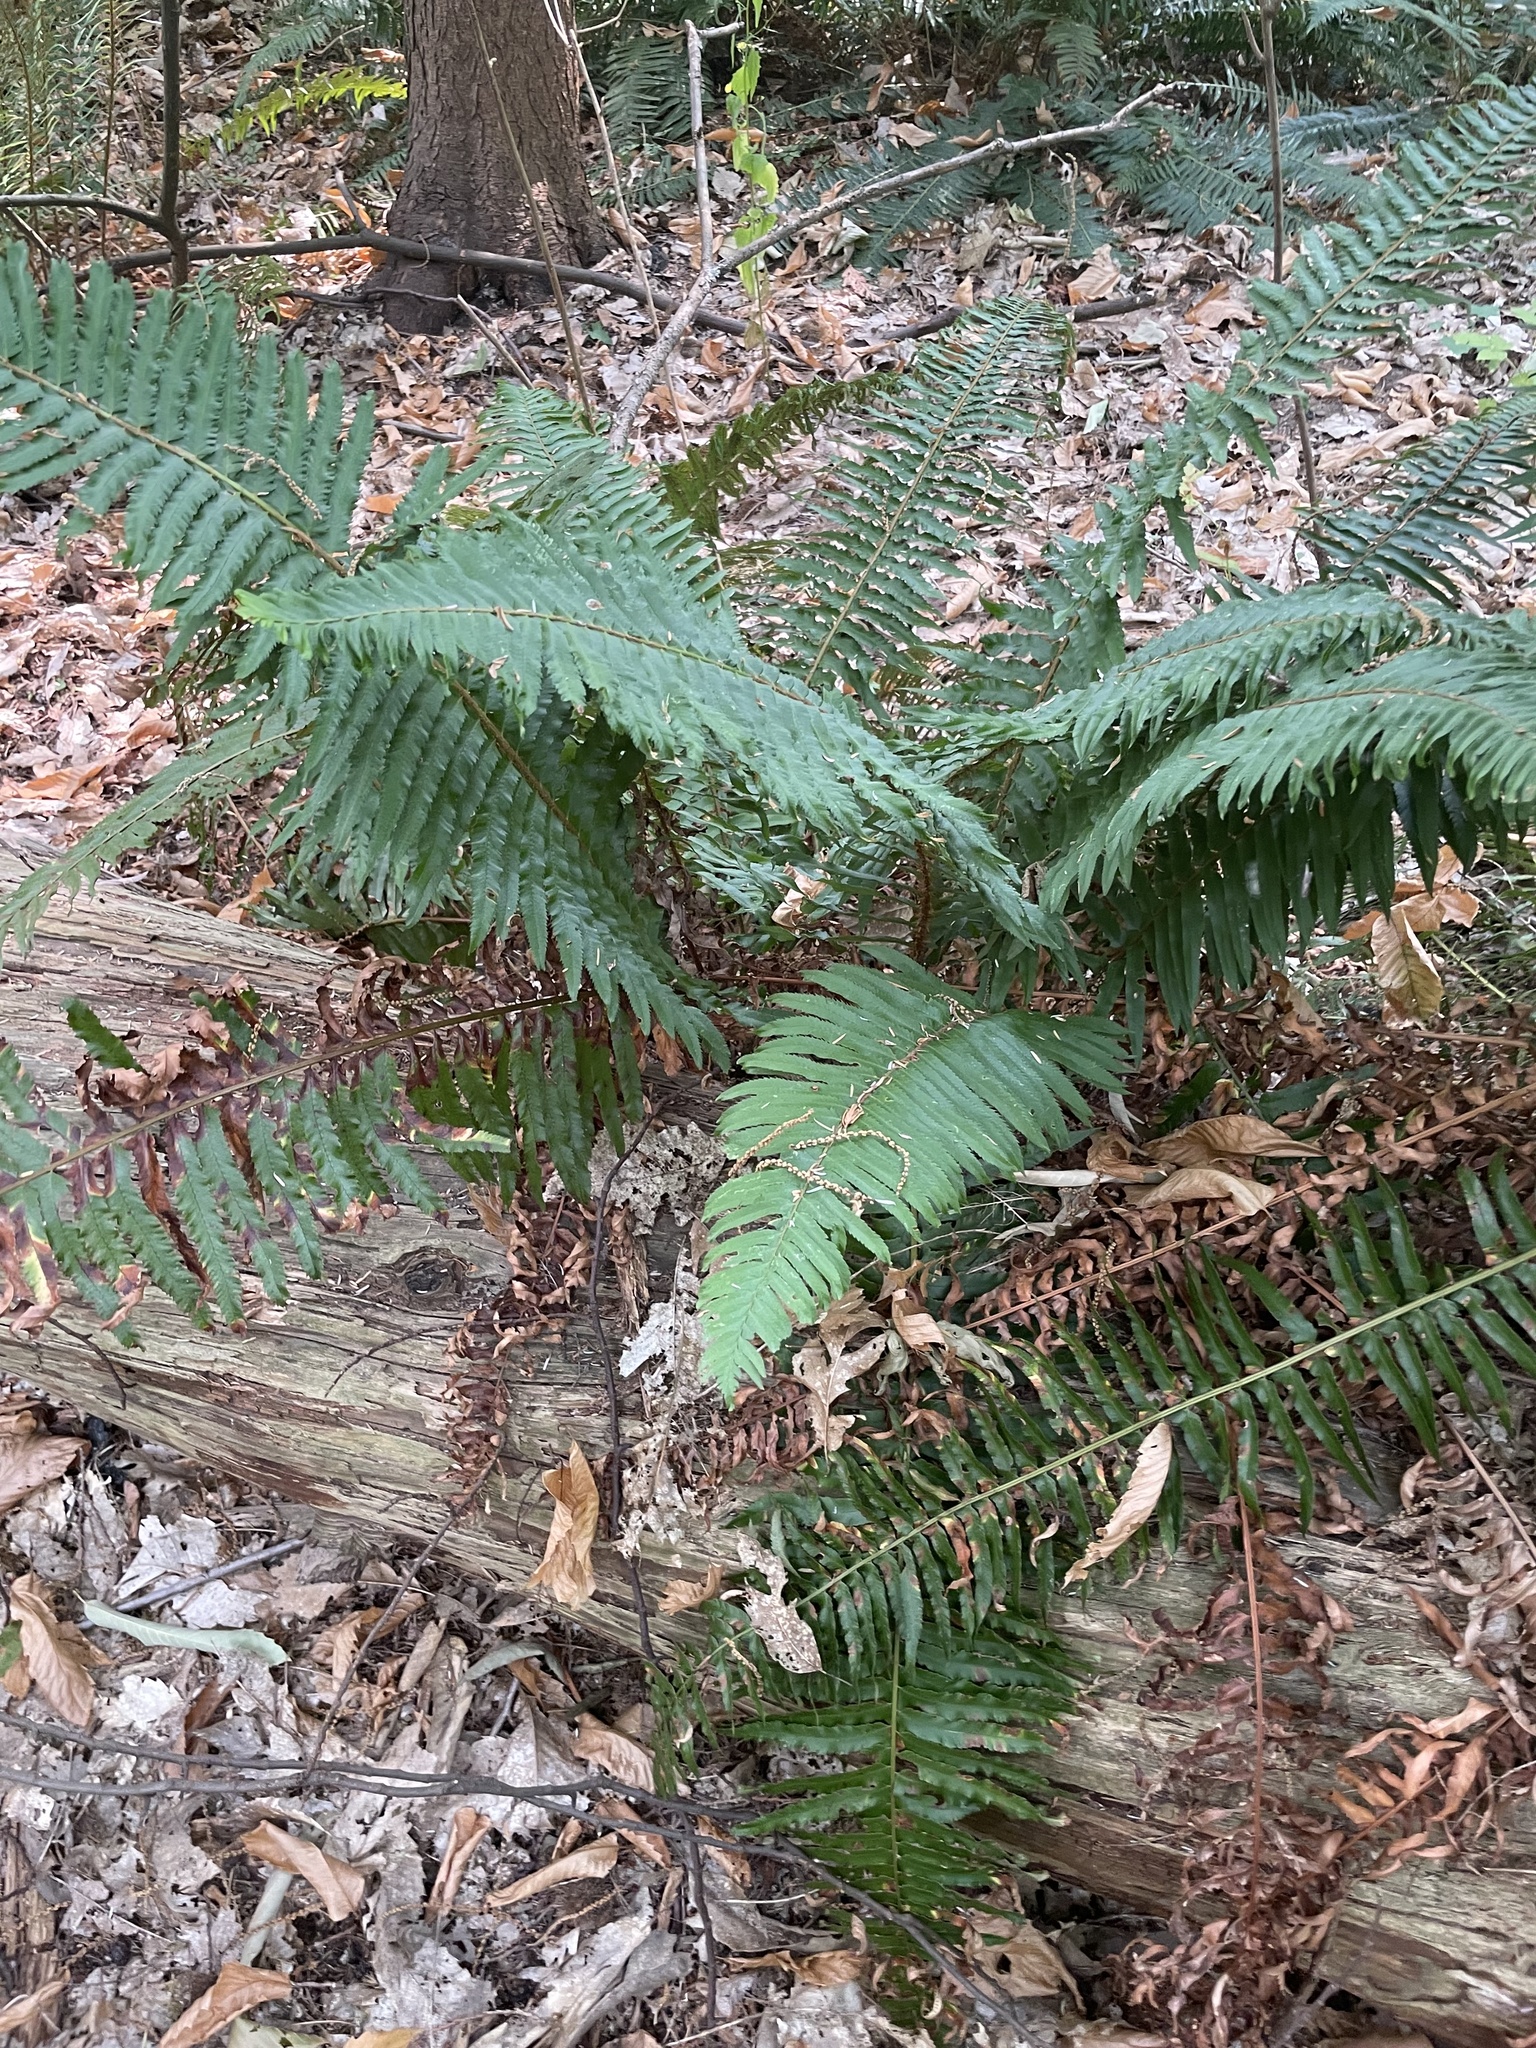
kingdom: Plantae
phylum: Tracheophyta
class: Polypodiopsida
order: Polypodiales
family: Dryopteridaceae
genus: Polystichum
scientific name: Polystichum munitum
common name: Western sword-fern
